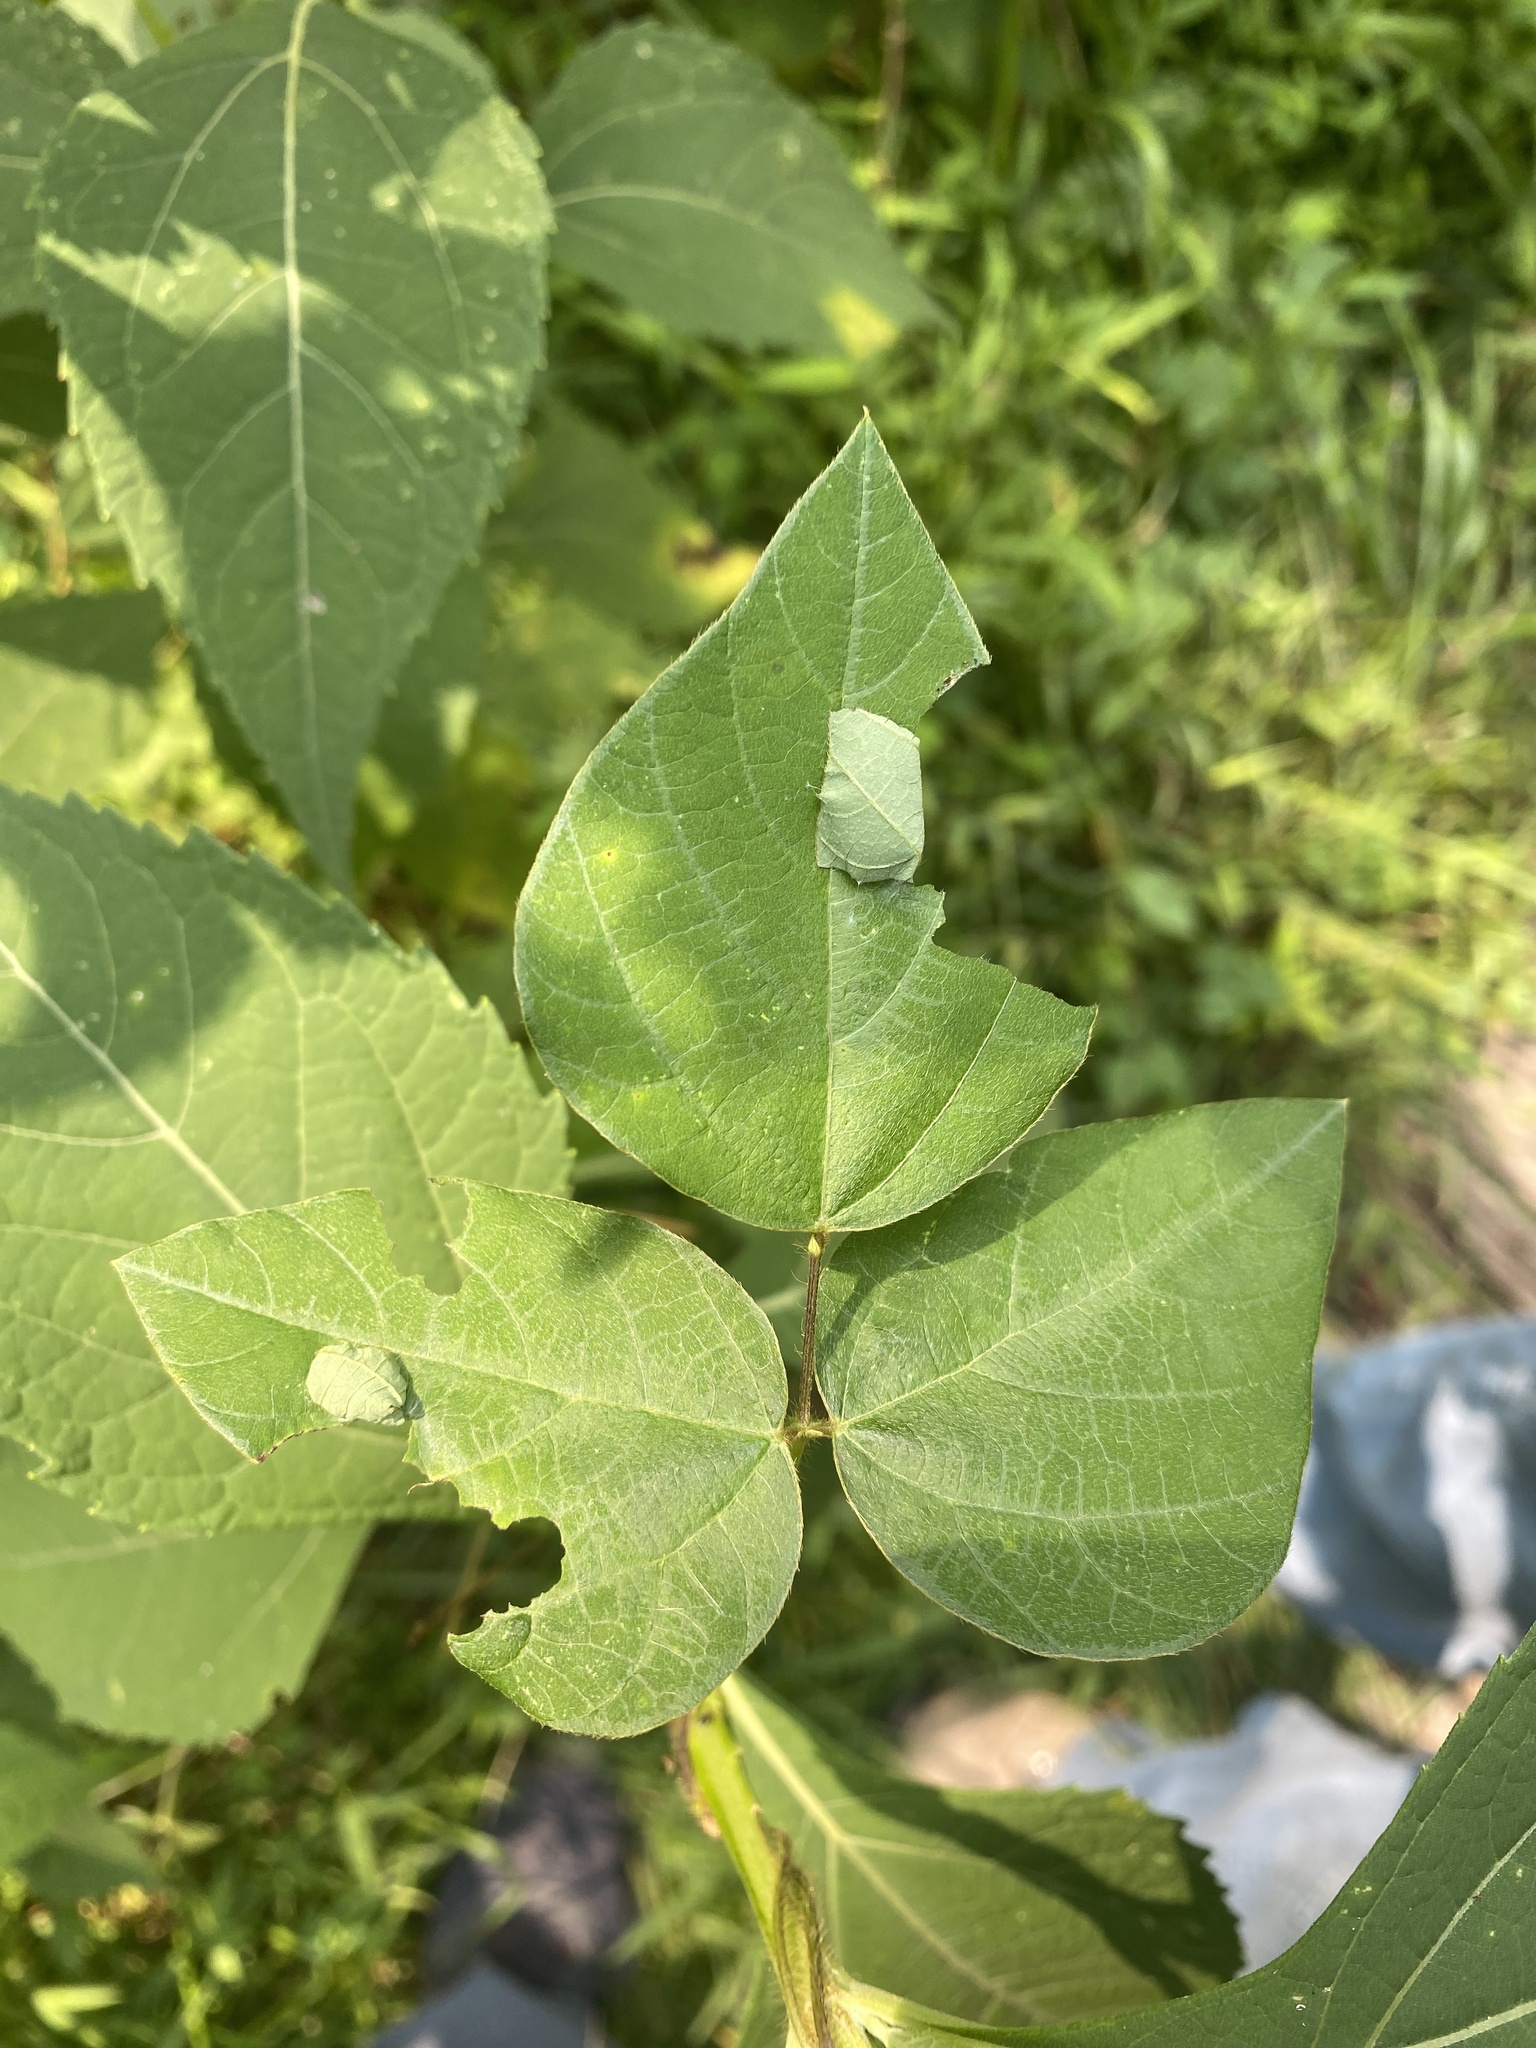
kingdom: Plantae
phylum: Tracheophyta
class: Magnoliopsida
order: Fabales
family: Fabaceae
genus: Amphicarpaea
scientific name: Amphicarpaea bracteata
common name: American hog peanut
